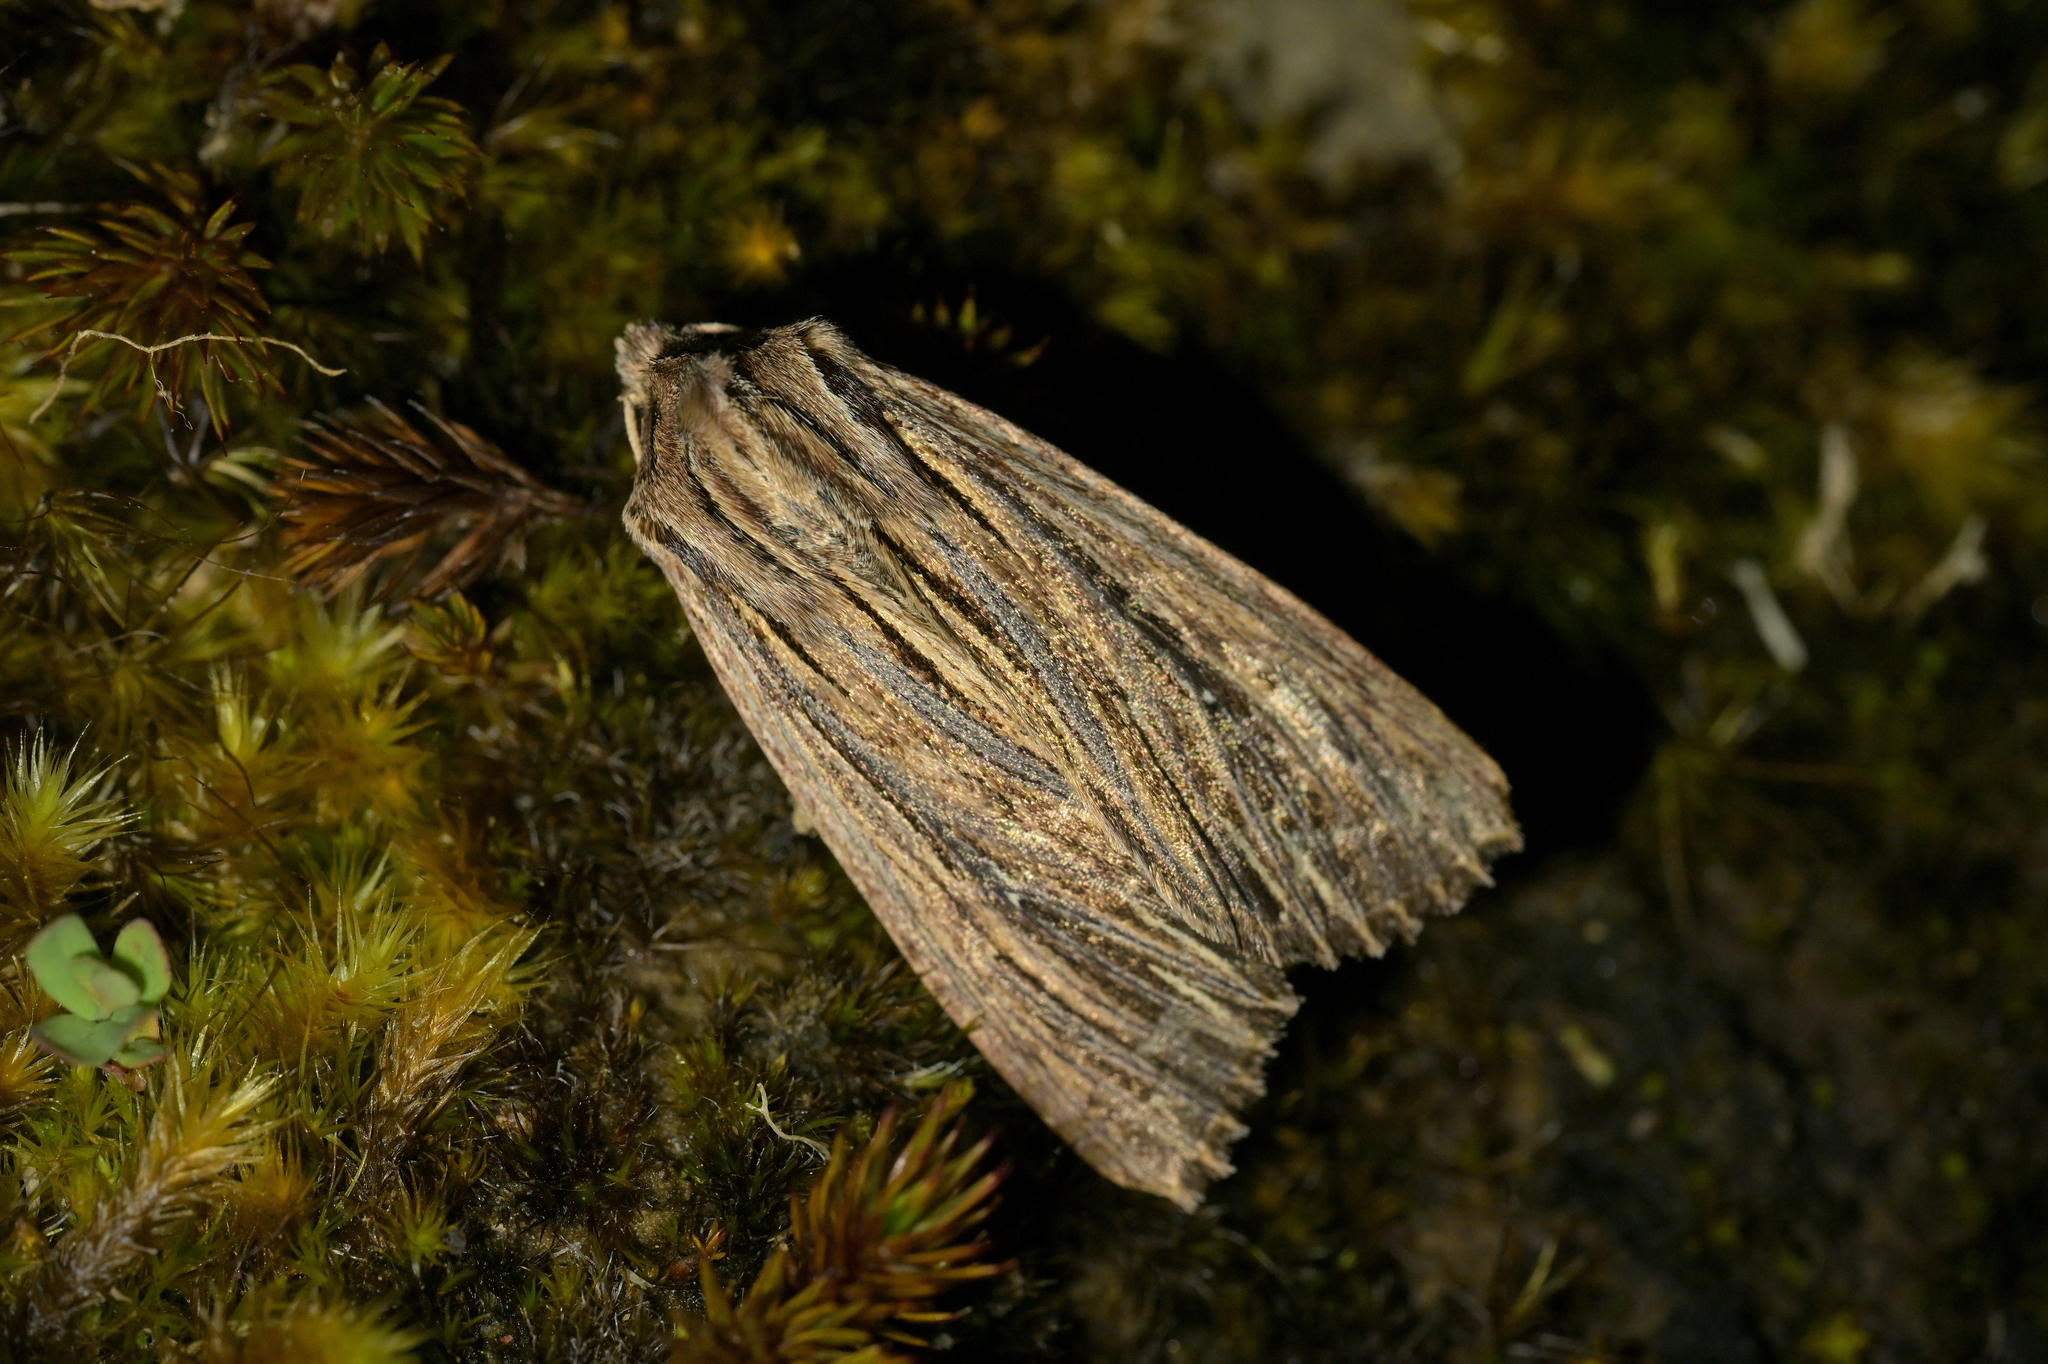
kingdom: Animalia
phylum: Arthropoda
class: Insecta
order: Lepidoptera
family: Noctuidae
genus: Ichneutica
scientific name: Ichneutica
